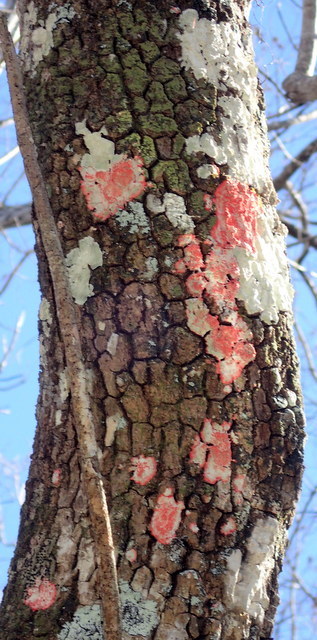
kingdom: Fungi
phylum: Ascomycota
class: Arthoniomycetes
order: Arthoniales
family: Arthoniaceae
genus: Herpothallon
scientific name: Herpothallon rubrocinctum
